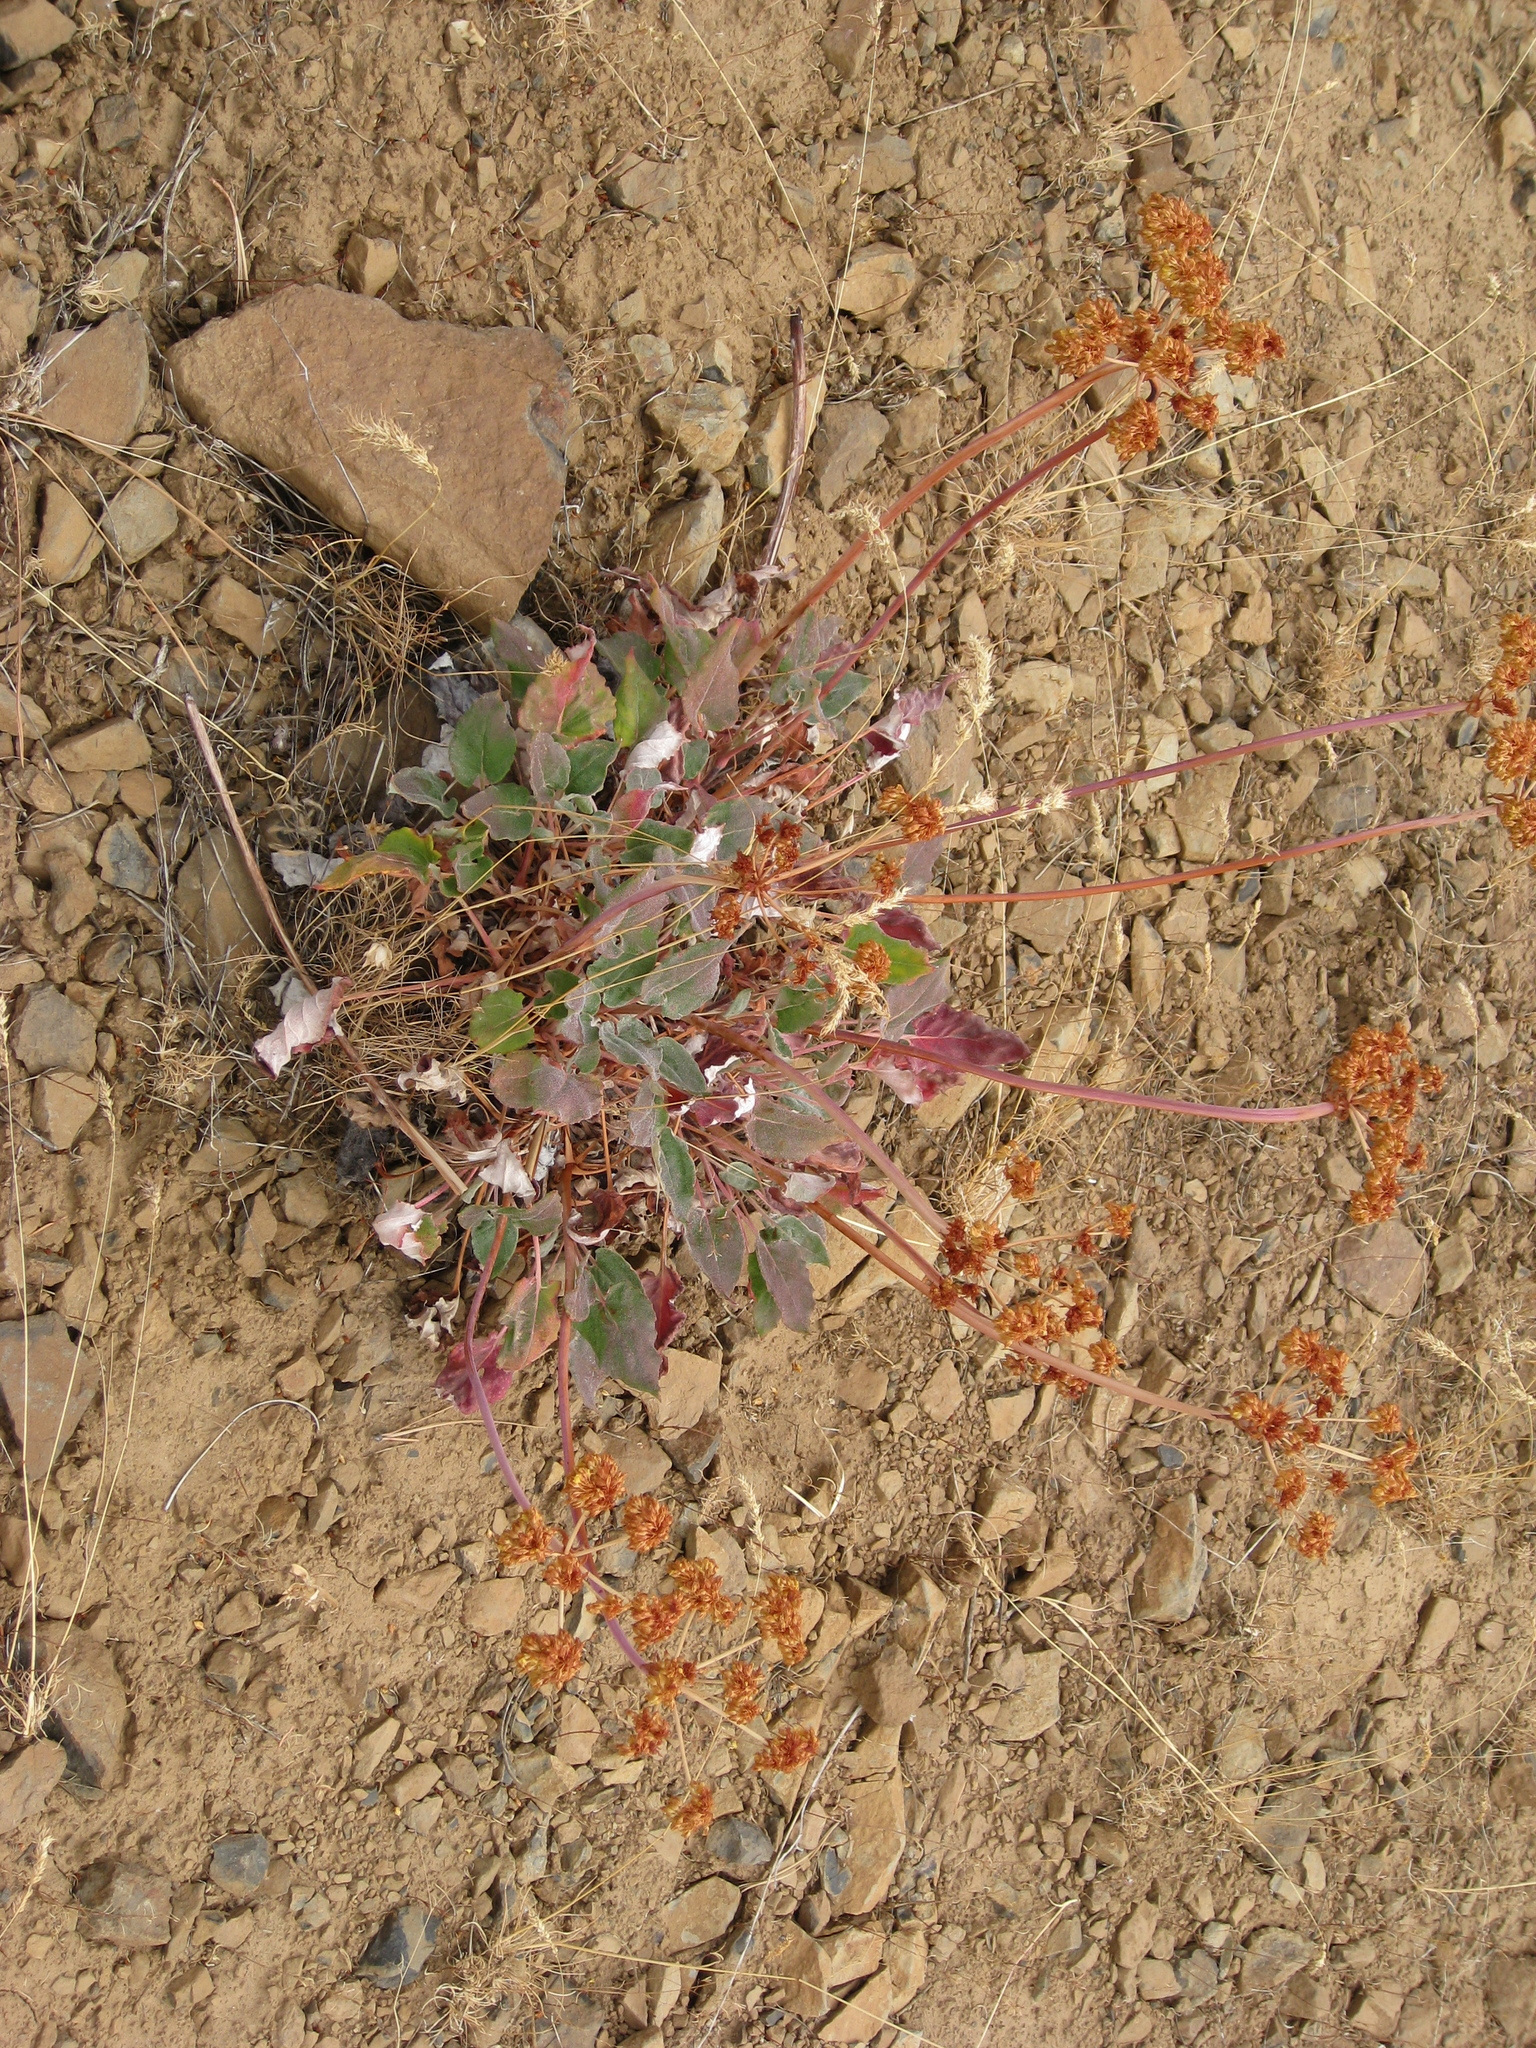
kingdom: Plantae
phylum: Tracheophyta
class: Magnoliopsida
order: Caryophyllales
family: Polygonaceae
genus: Eriogonum
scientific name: Eriogonum compositum
